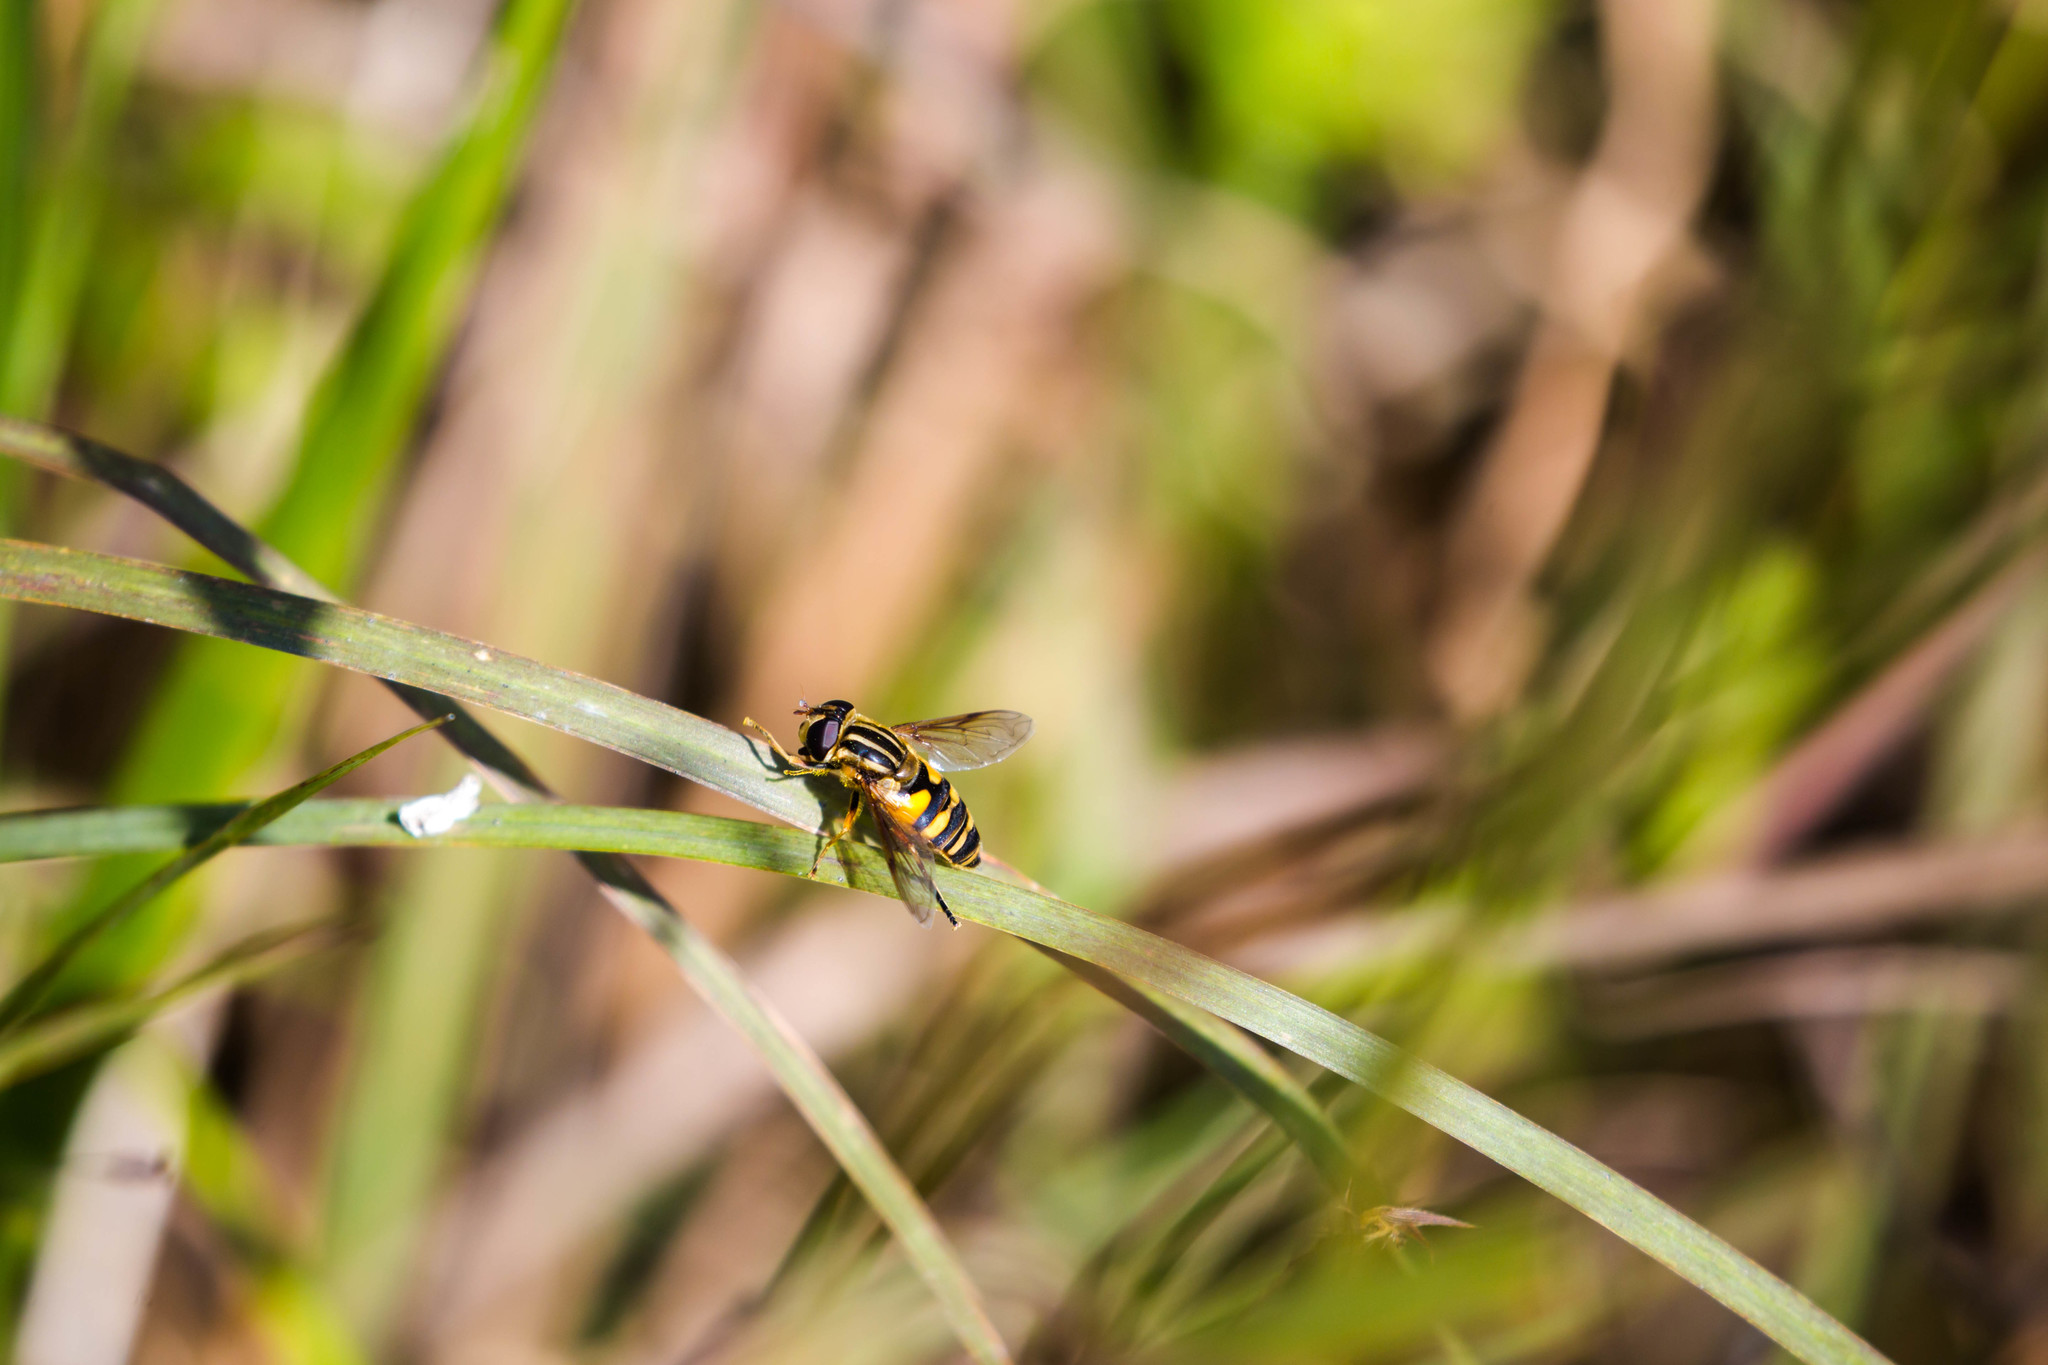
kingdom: Animalia
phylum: Arthropoda
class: Insecta
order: Diptera
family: Syrphidae
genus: Helophilus
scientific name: Helophilus fasciatus
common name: Narrow-headed marsh fly
